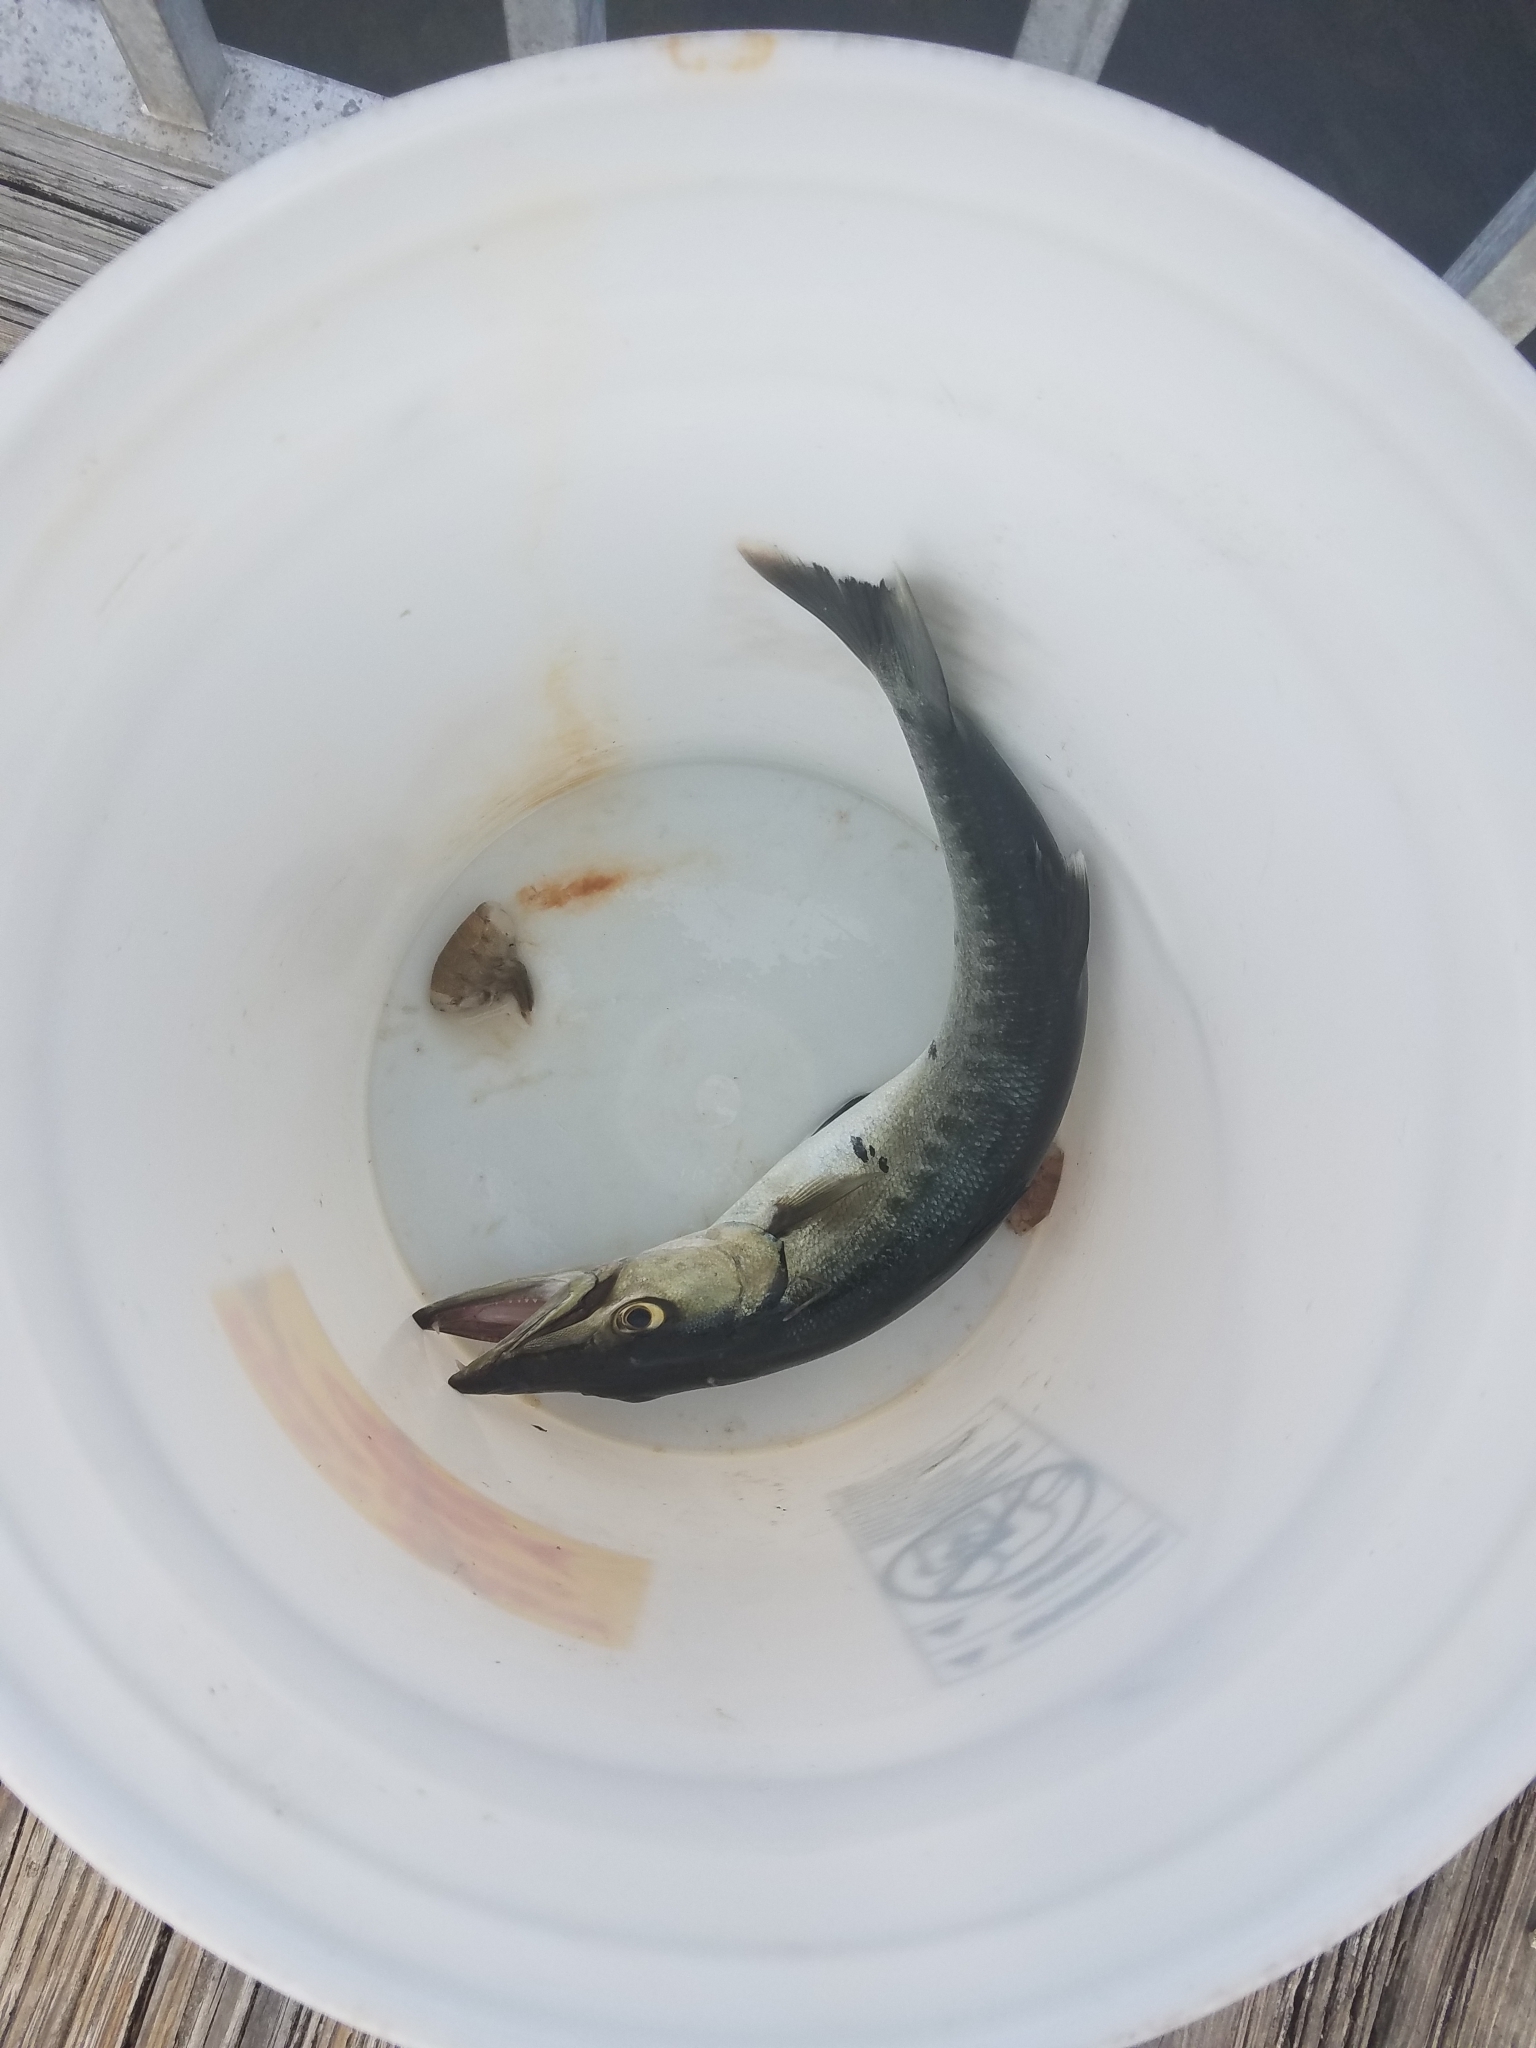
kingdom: Animalia
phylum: Chordata
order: Perciformes
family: Sphyraenidae
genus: Sphyraena
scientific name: Sphyraena barracuda
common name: Great barracuda
